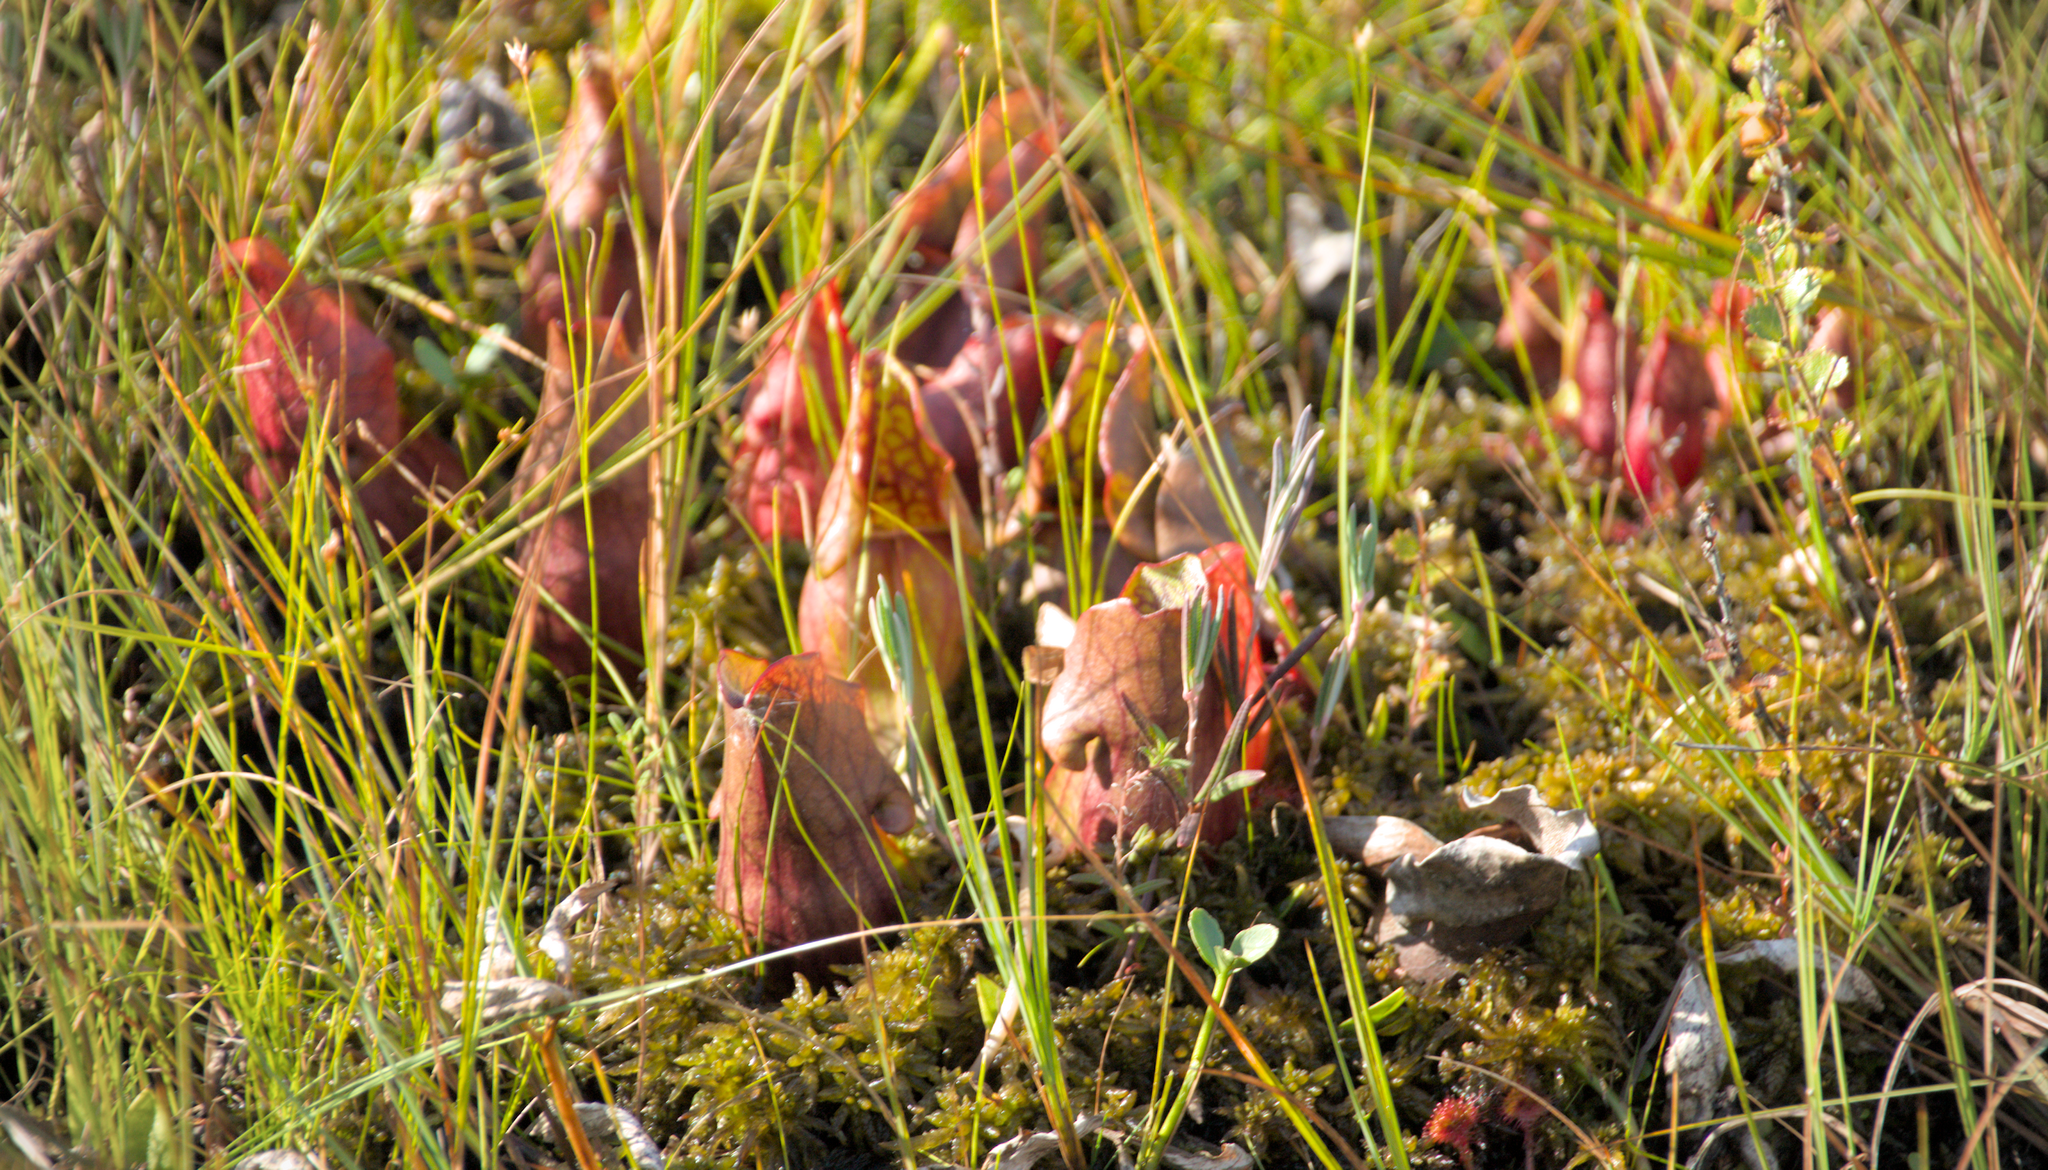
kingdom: Plantae
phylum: Tracheophyta
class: Magnoliopsida
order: Ericales
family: Sarraceniaceae
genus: Sarracenia
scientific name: Sarracenia purpurea
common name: Pitcherplant
